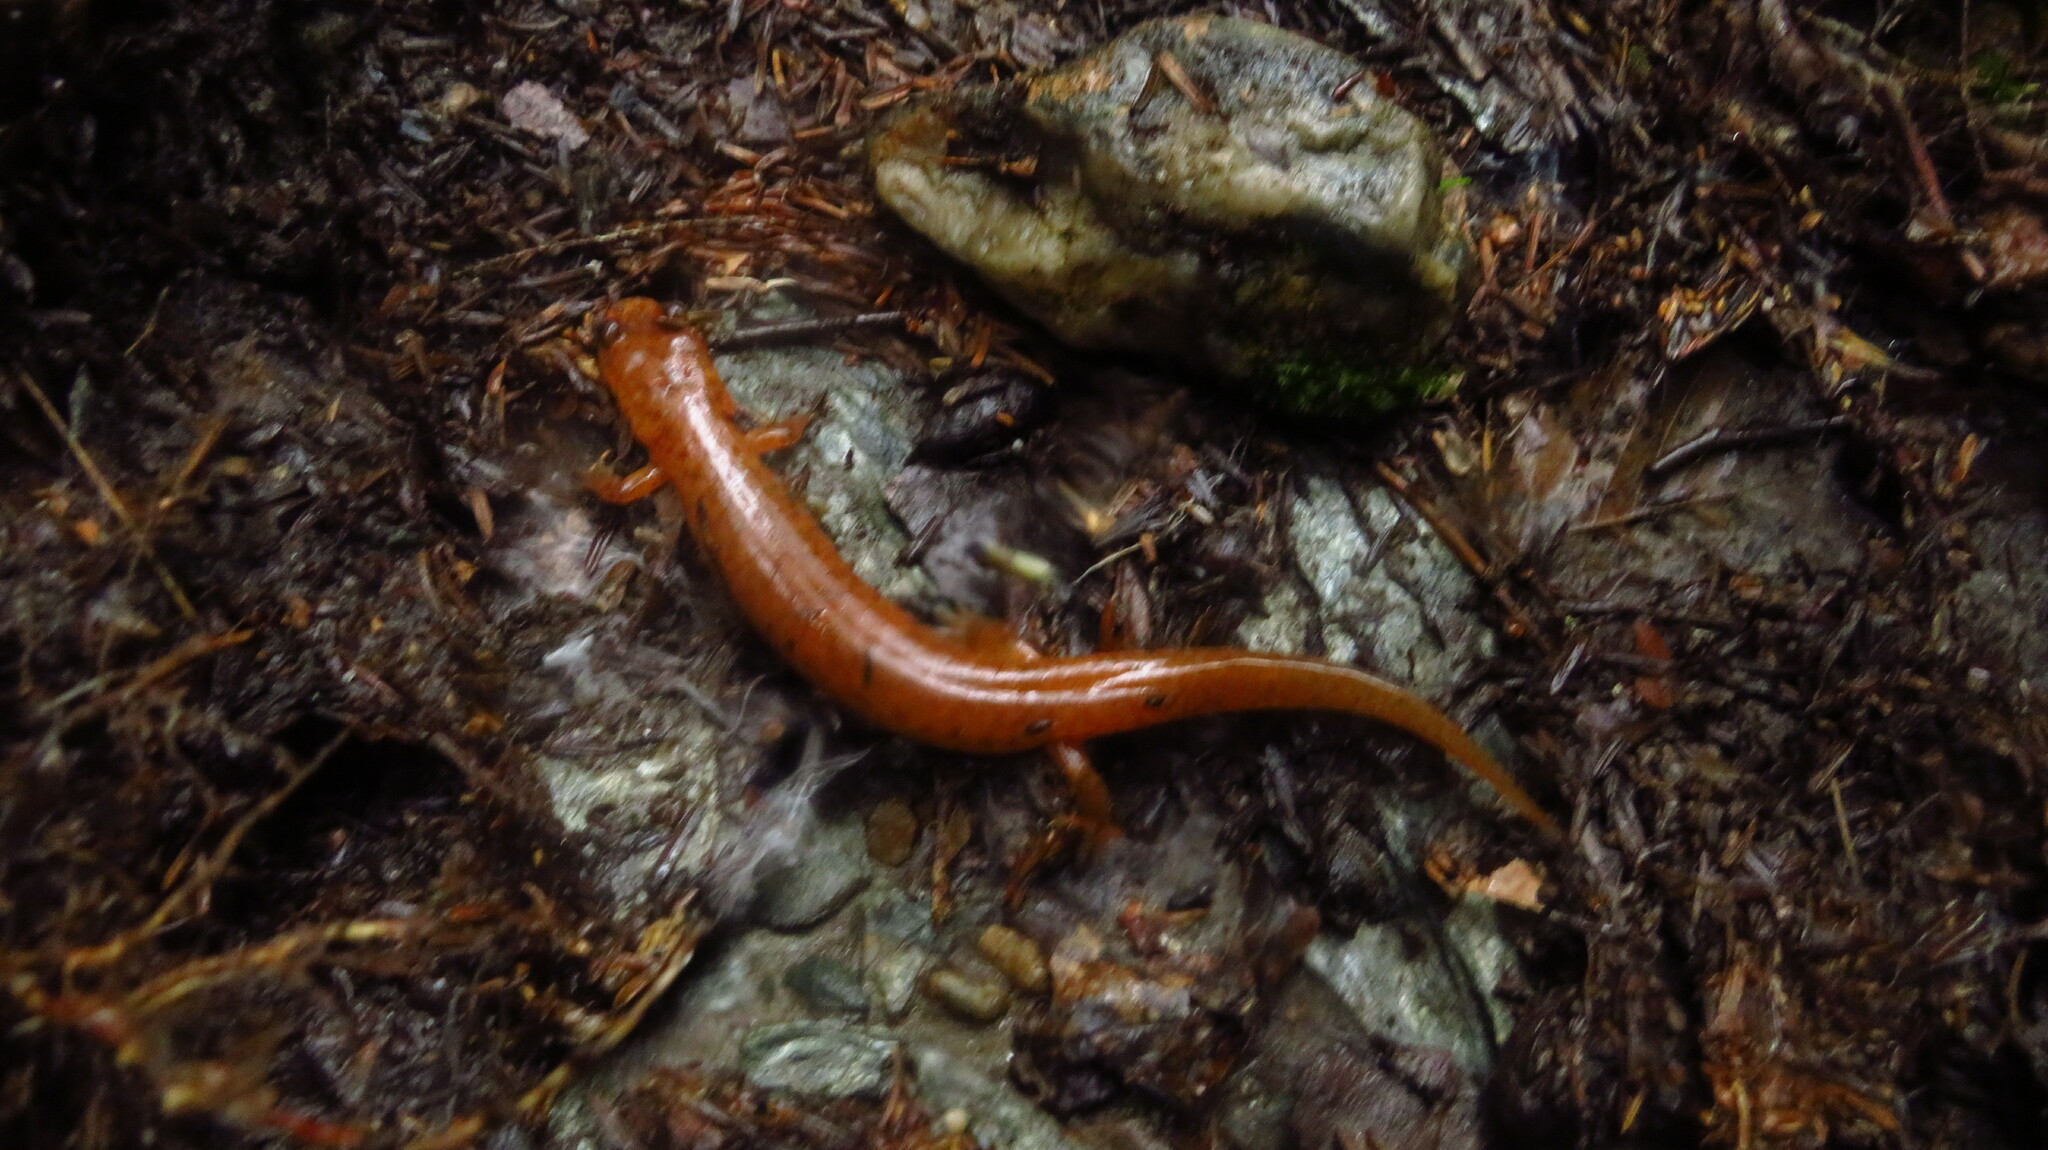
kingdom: Animalia
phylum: Chordata
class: Amphibia
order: Caudata
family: Plethodontidae
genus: Gyrinophilus
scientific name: Gyrinophilus porphyriticus
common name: Spring salamander
